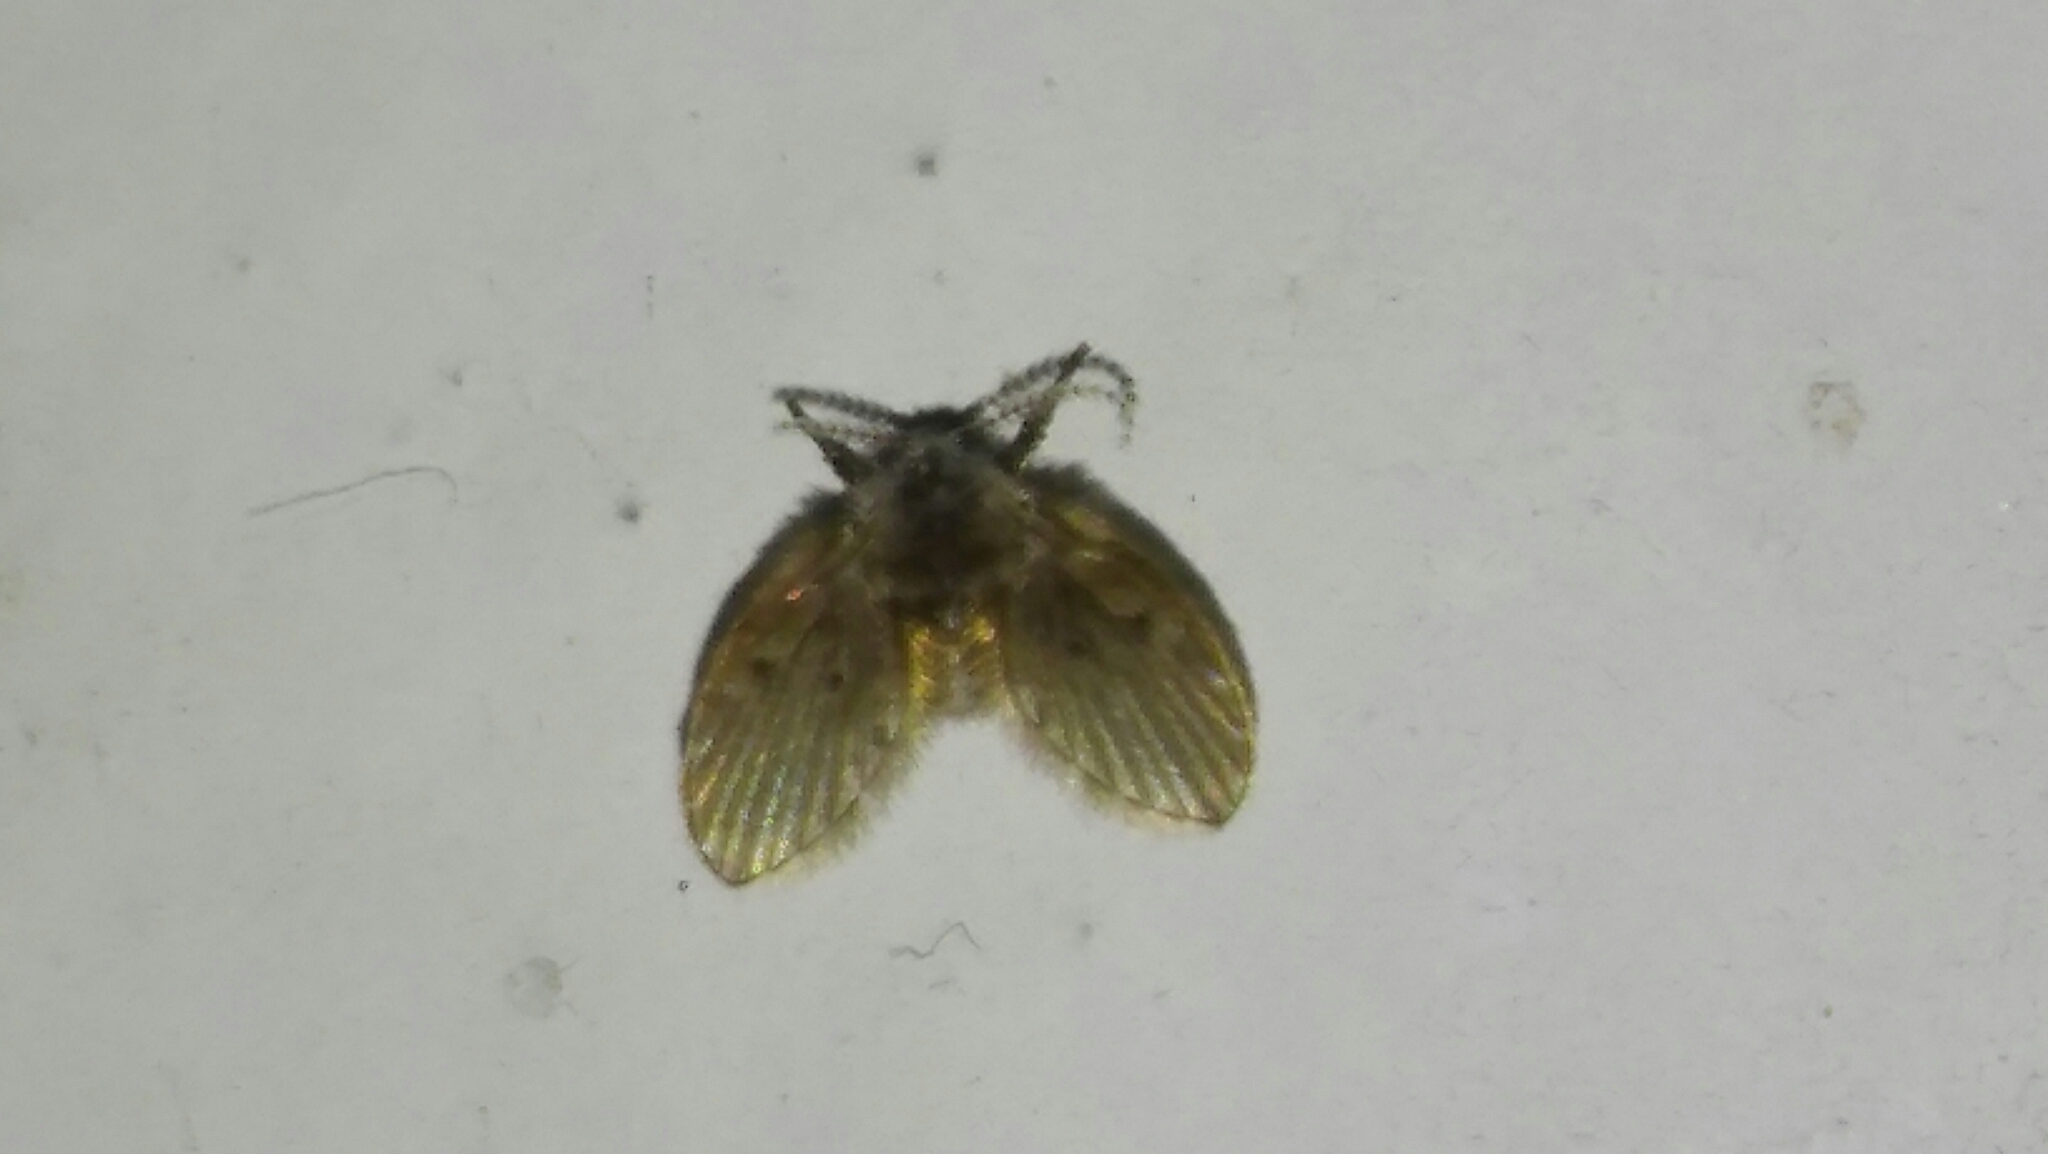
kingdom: Animalia
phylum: Arthropoda
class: Insecta
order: Diptera
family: Psychodidae
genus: Clogmia
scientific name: Clogmia albipunctatus
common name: White-spotted moth fly
